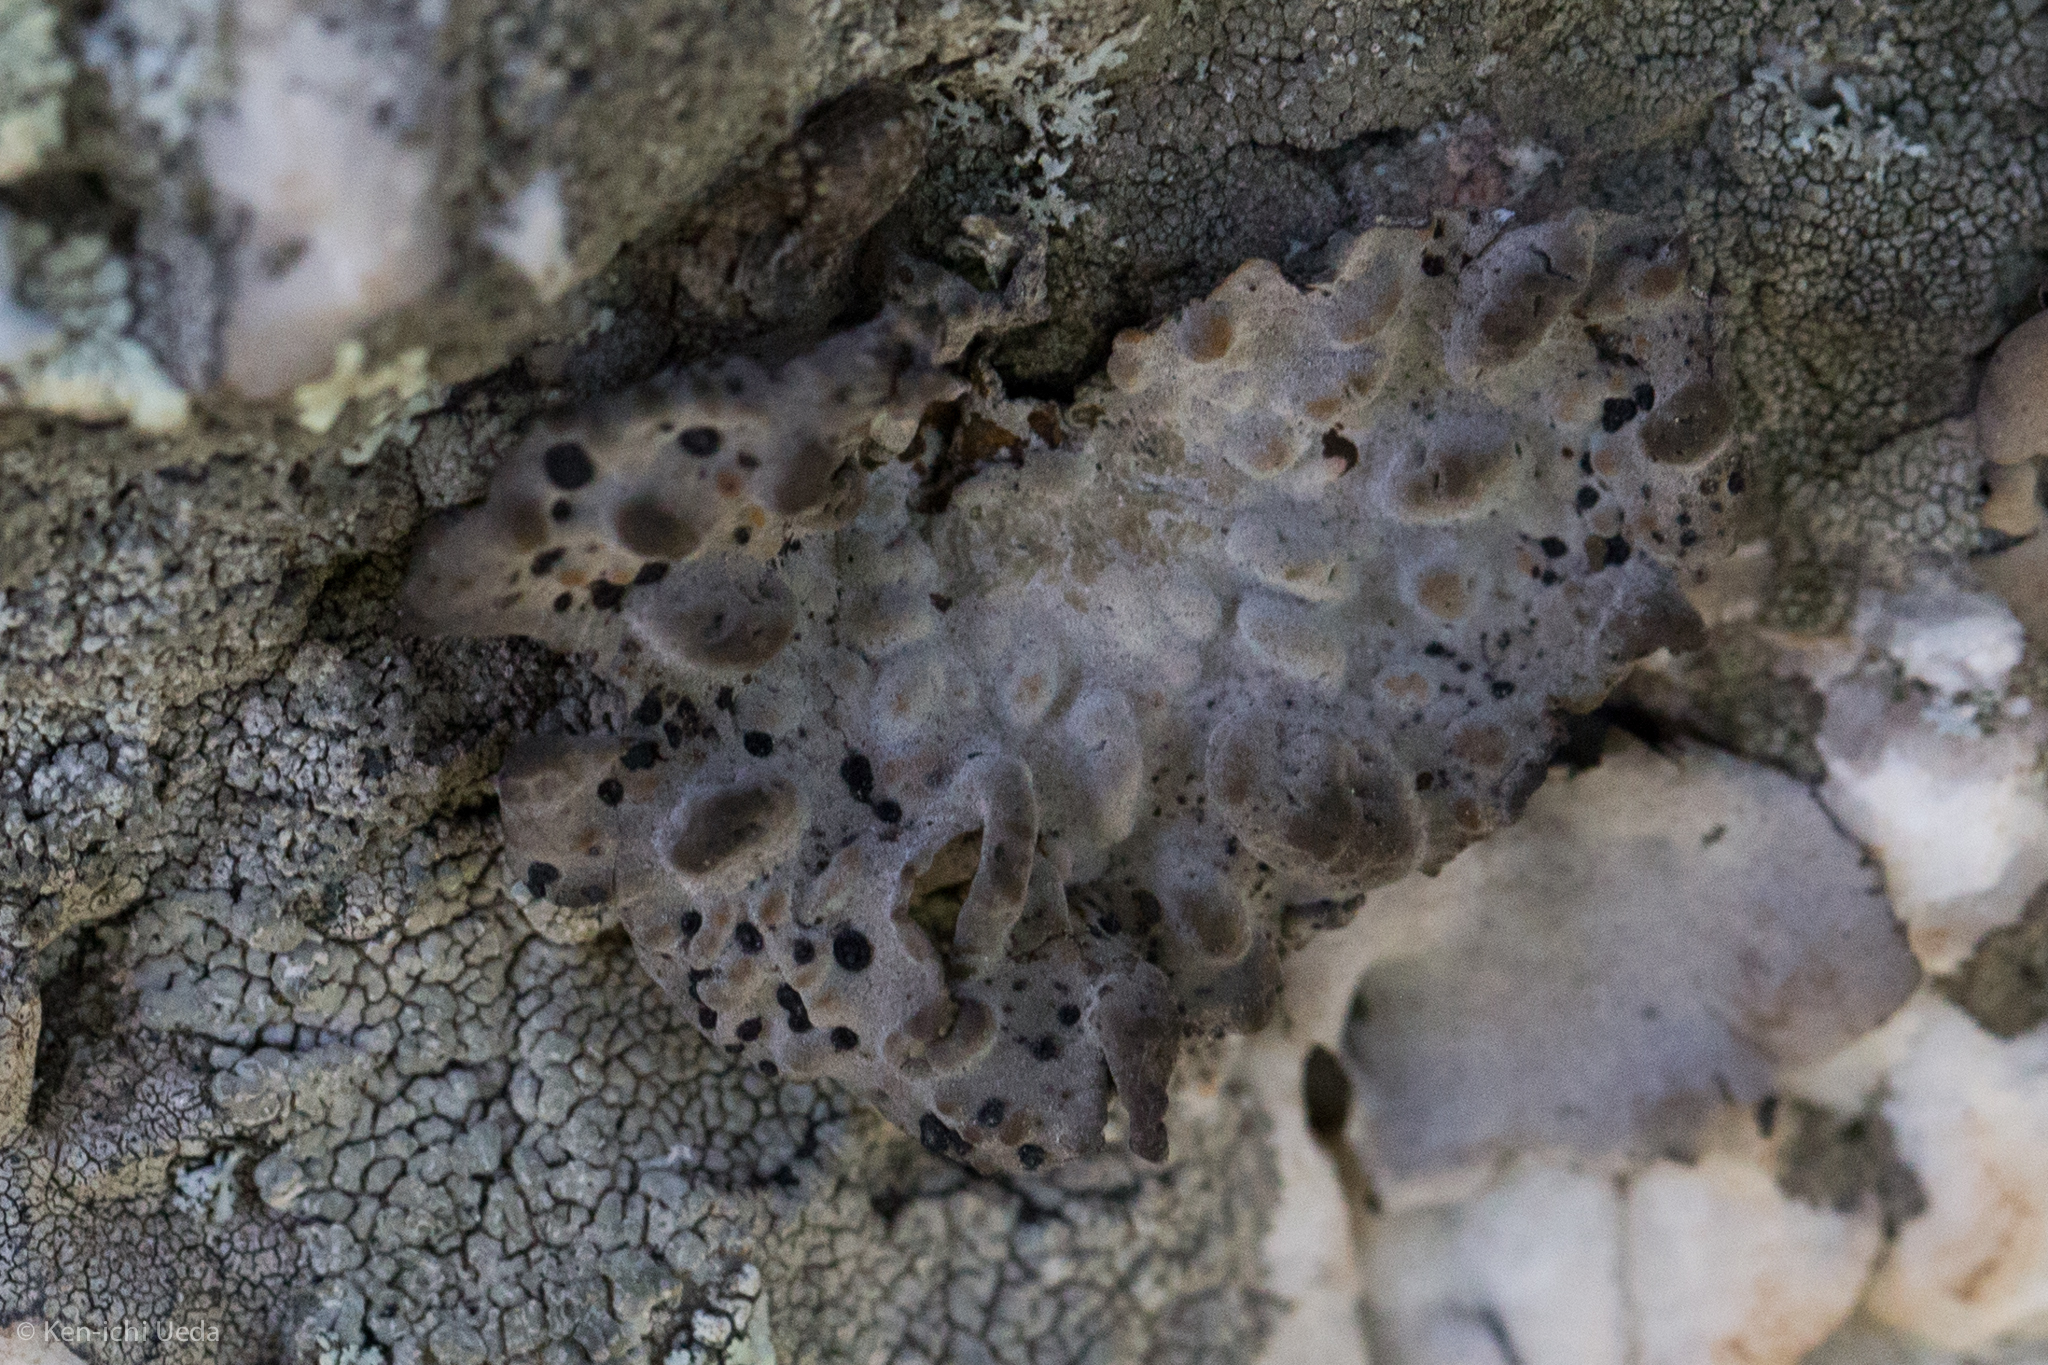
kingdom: Fungi
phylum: Ascomycota
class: Lecanoromycetes
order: Umbilicariales
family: Umbilicariaceae
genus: Lasallia
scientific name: Lasallia papulosa
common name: Common toadskin lichen
